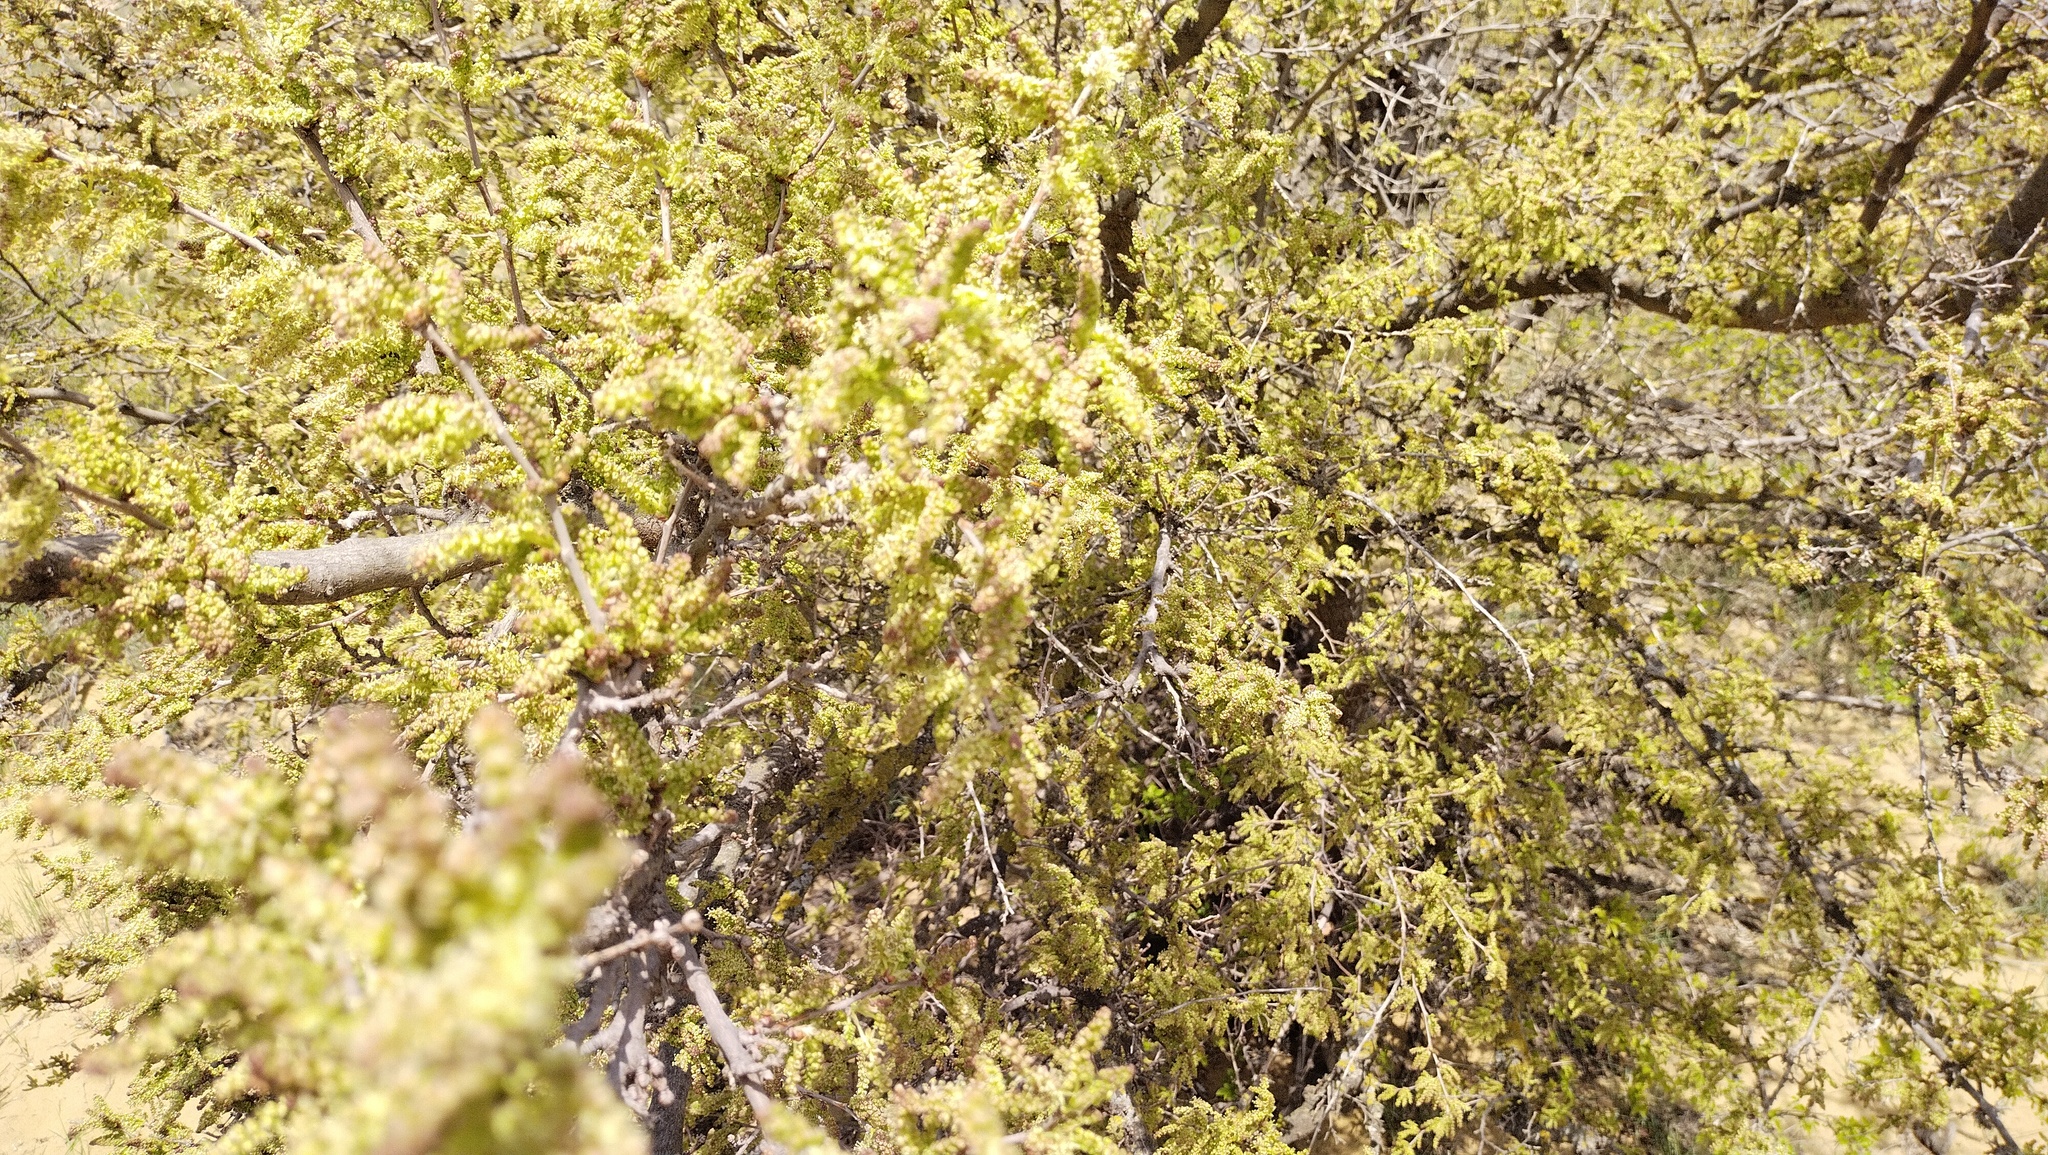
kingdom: Plantae
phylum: Tracheophyta
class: Magnoliopsida
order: Rosales
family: Moraceae
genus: Morus
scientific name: Morus alba
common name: White mulberry
